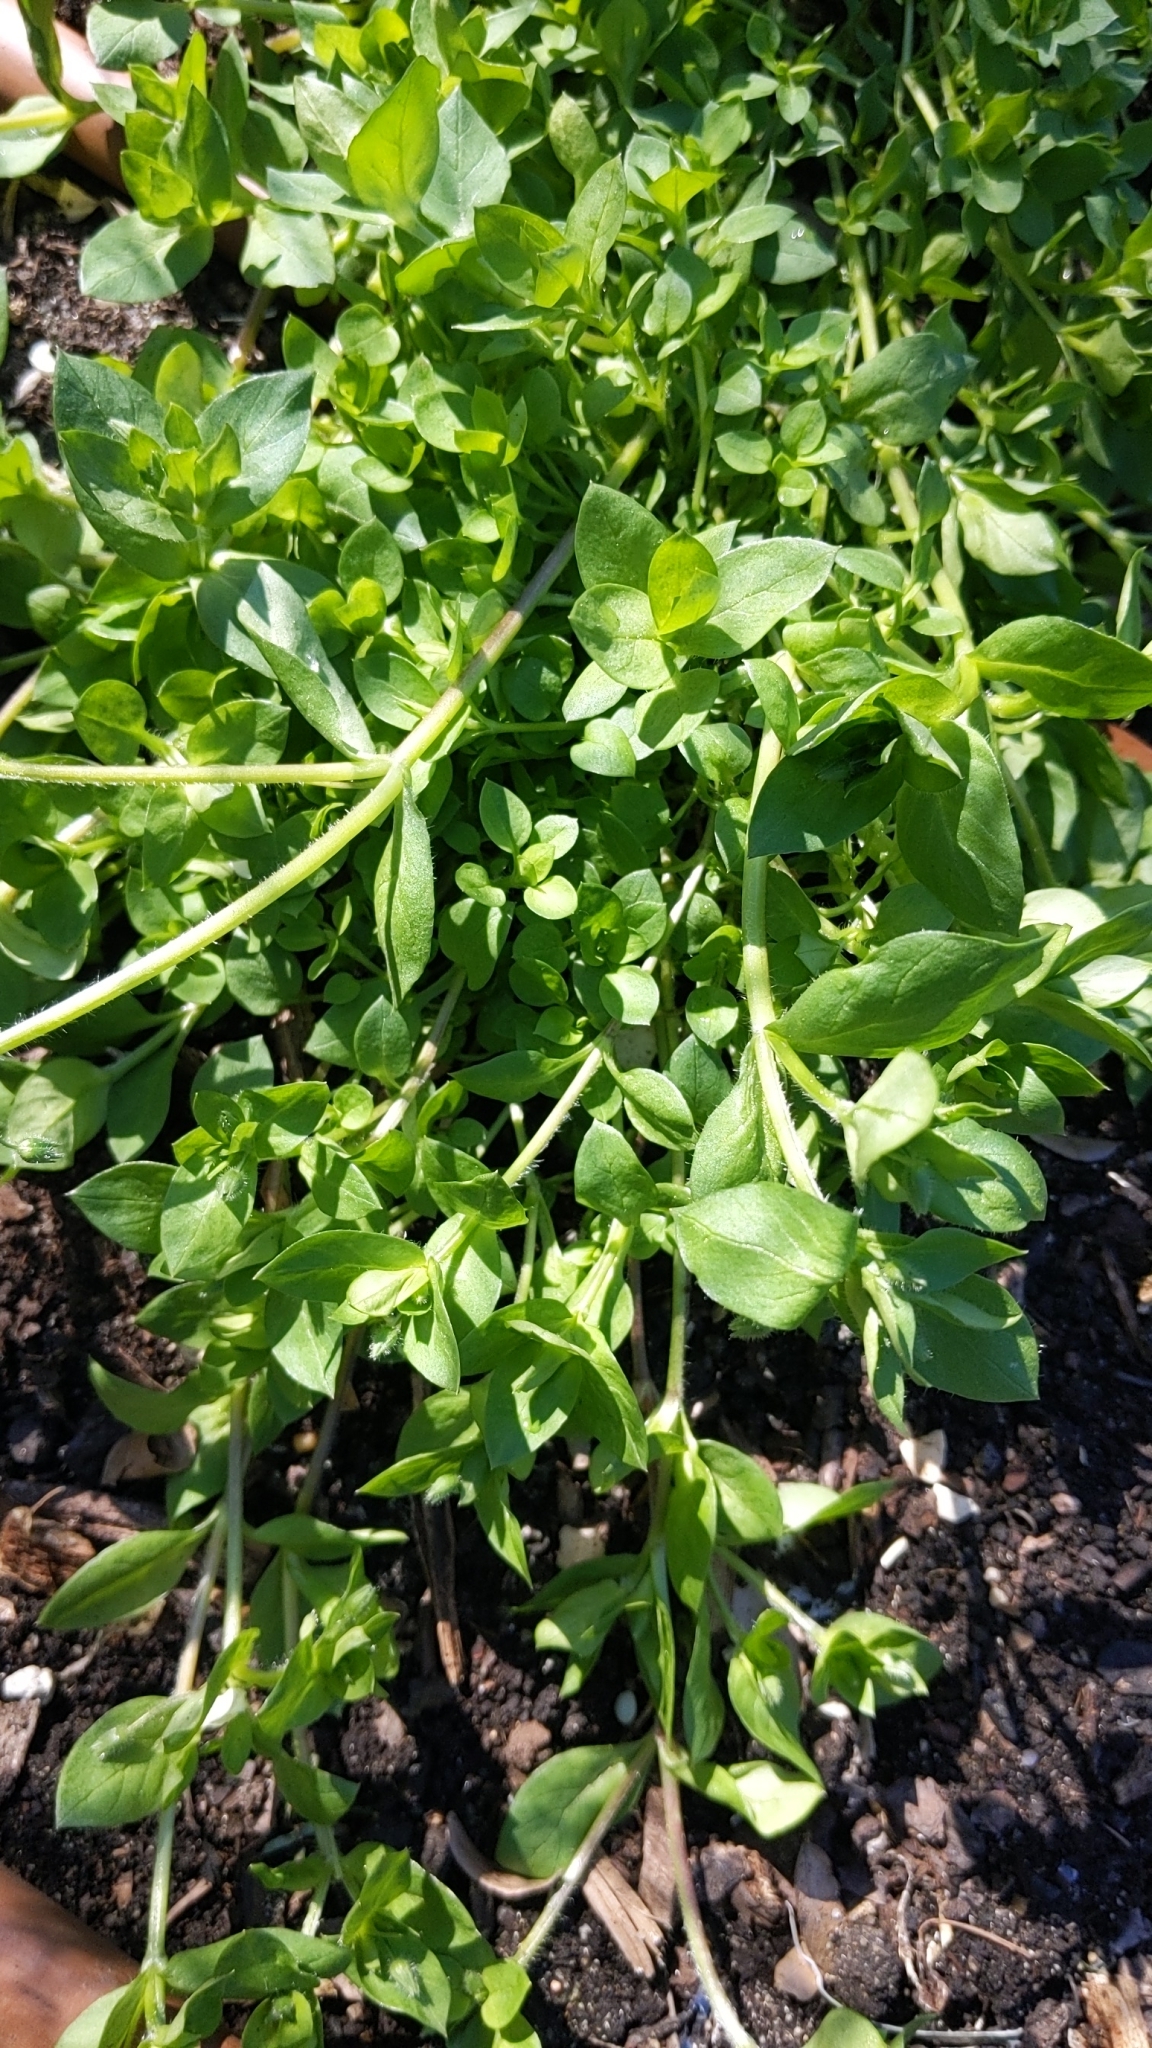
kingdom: Plantae
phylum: Tracheophyta
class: Magnoliopsida
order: Caryophyllales
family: Caryophyllaceae
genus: Stellaria
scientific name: Stellaria media
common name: Common chickweed
